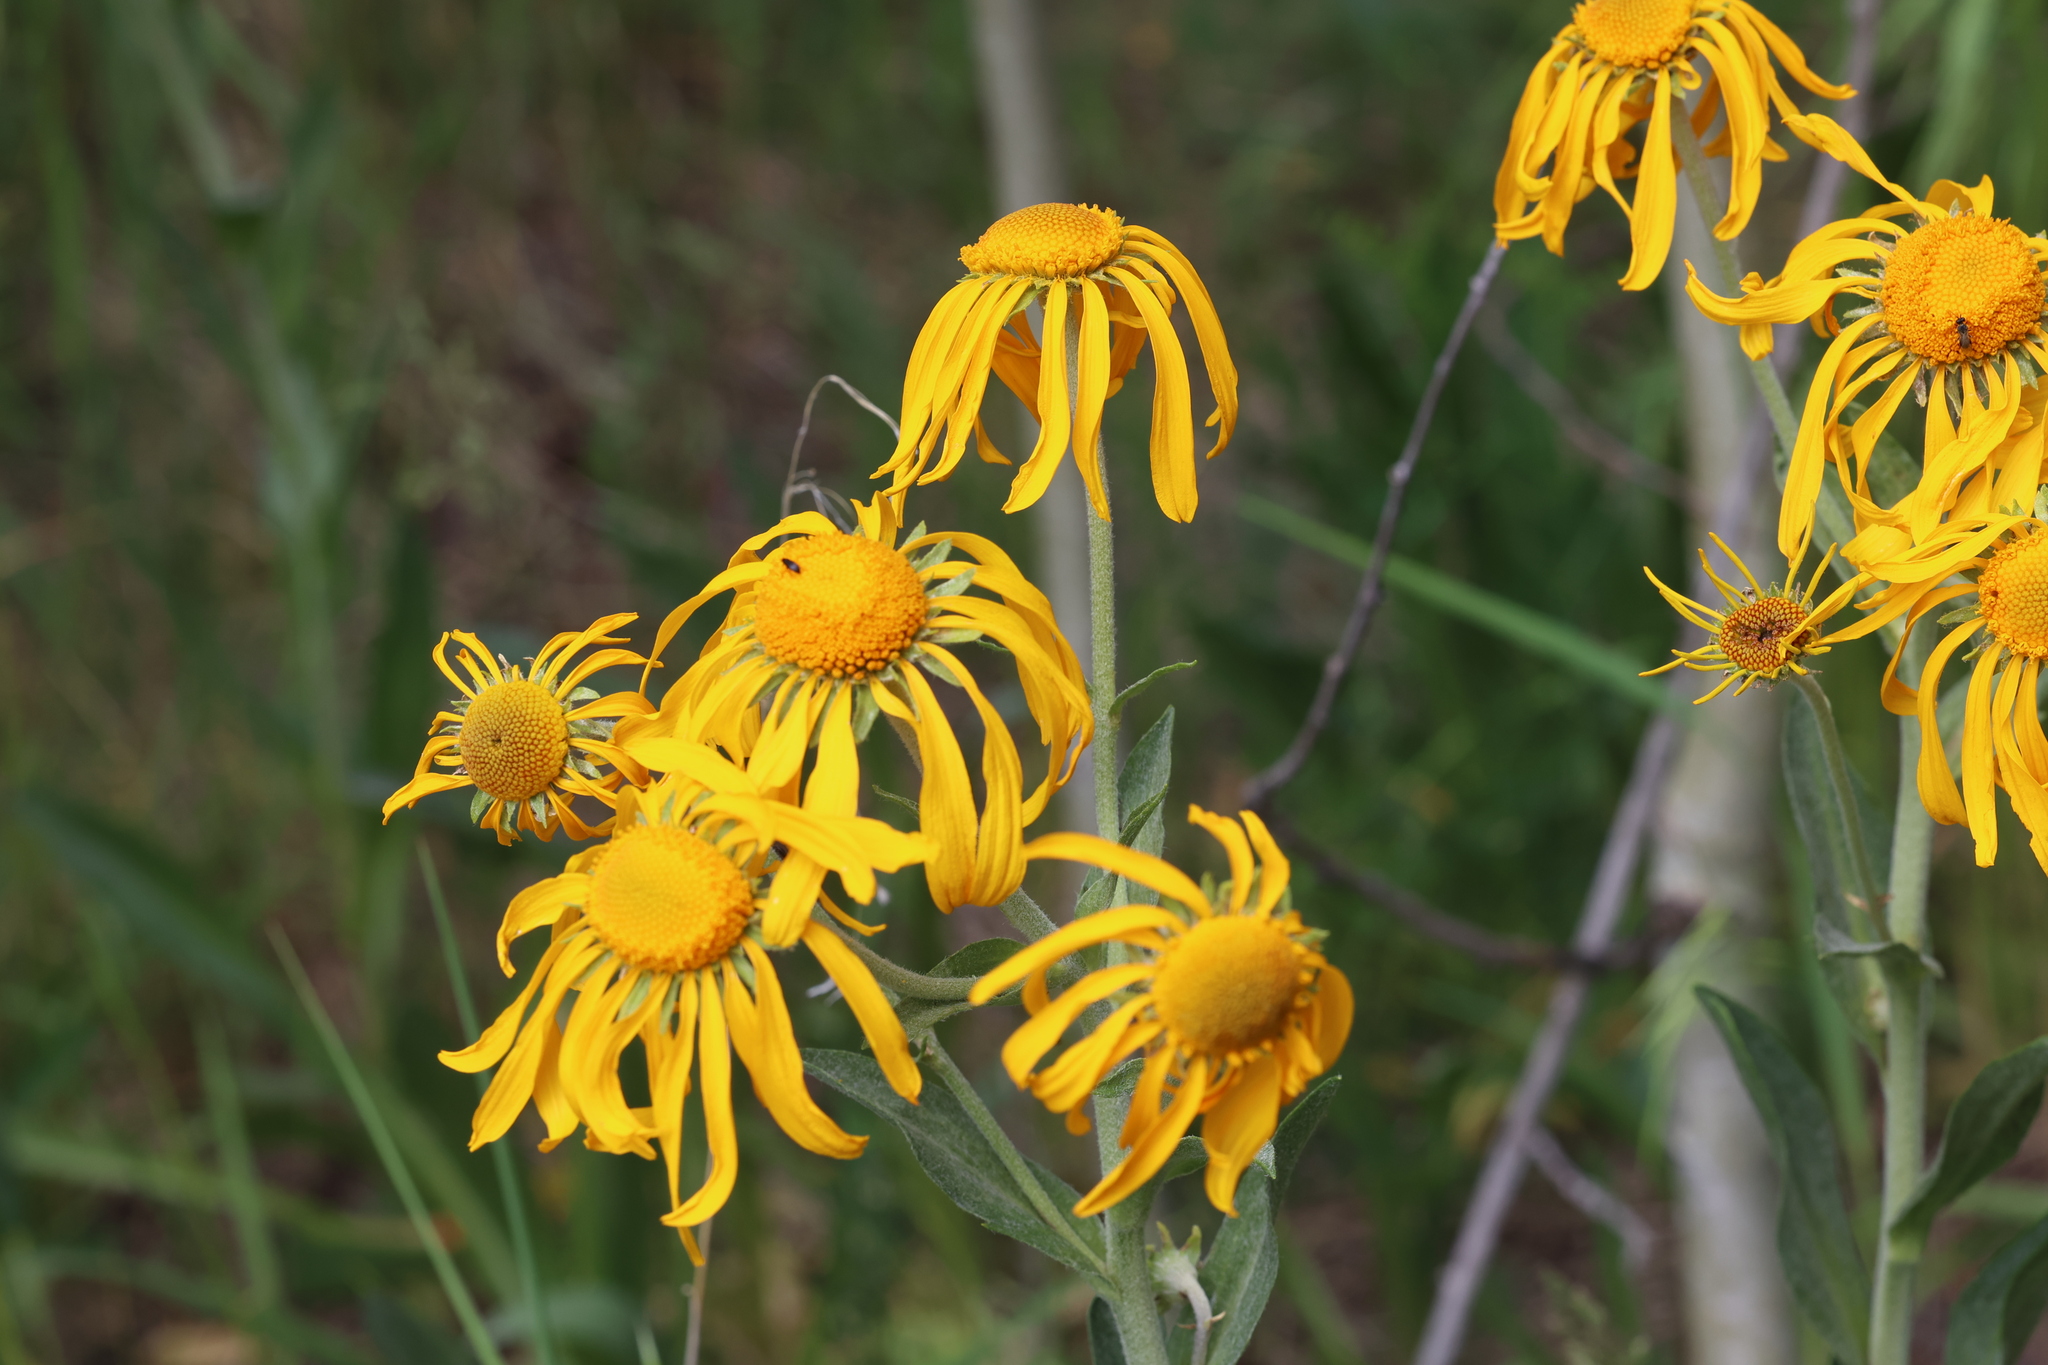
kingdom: Plantae
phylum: Tracheophyta
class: Magnoliopsida
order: Asterales
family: Asteraceae
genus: Hymenoxys
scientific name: Hymenoxys hoopesii
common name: Orange-sneezeweed
